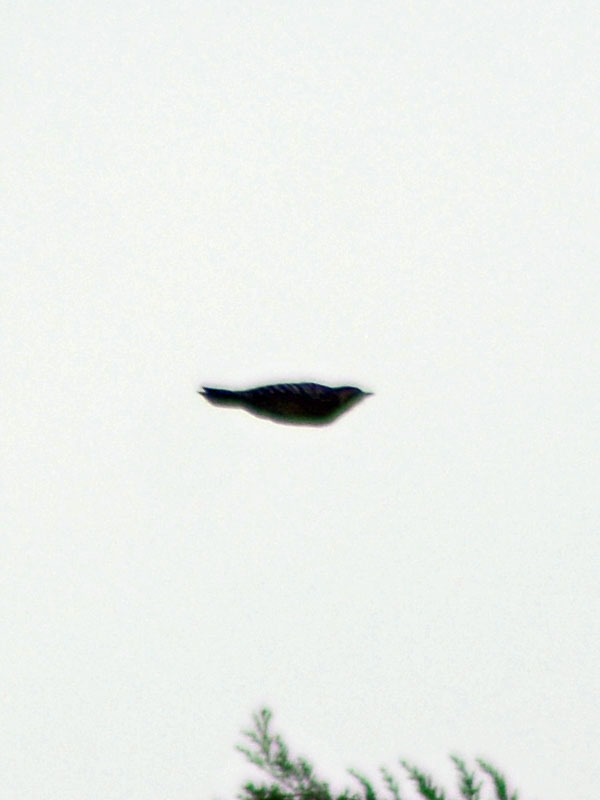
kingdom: Animalia
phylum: Chordata
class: Aves
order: Piciformes
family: Picidae
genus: Dryobates
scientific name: Dryobates scalaris
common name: Ladder-backed woodpecker
